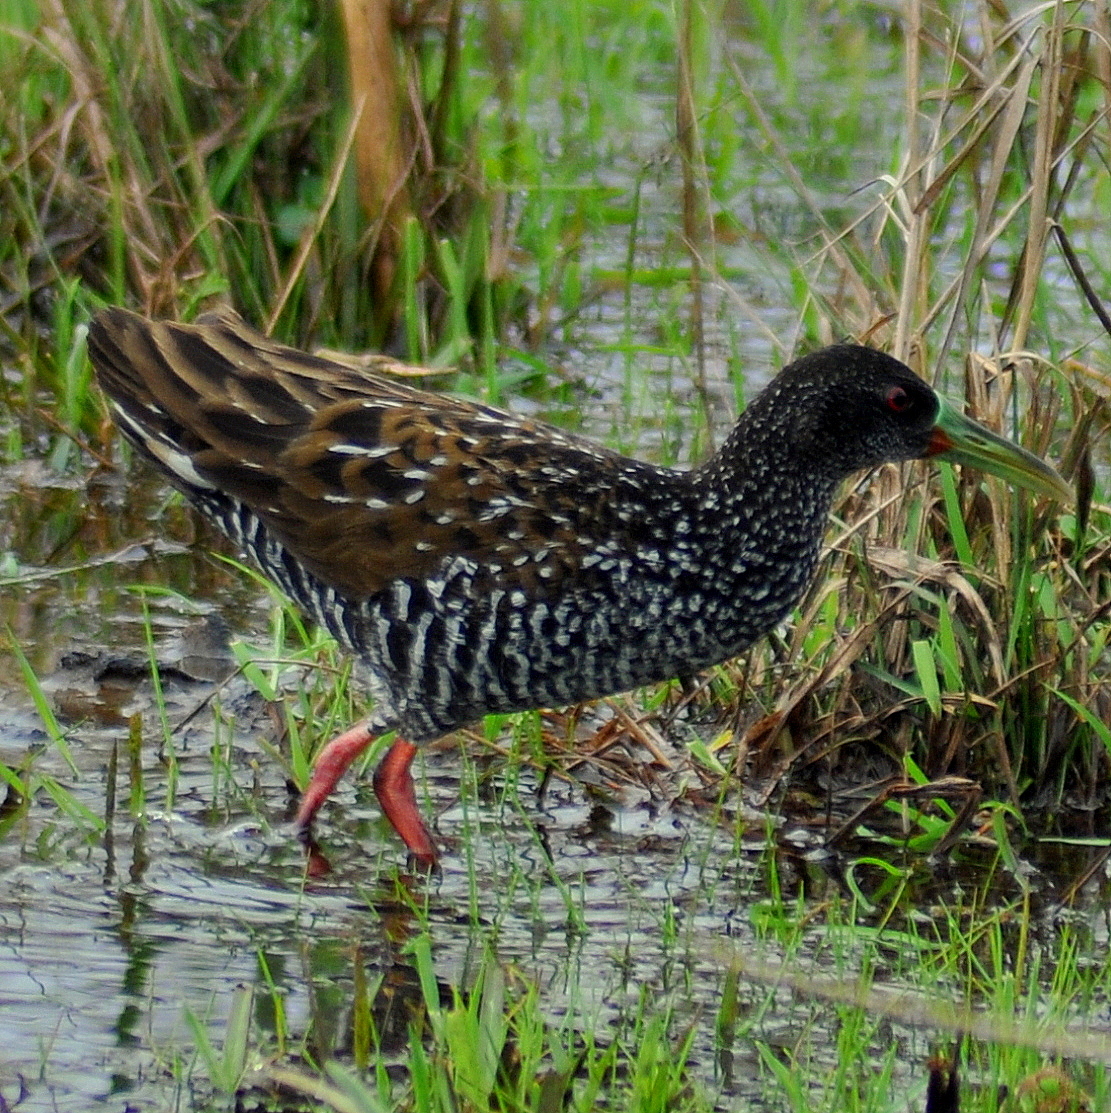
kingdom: Animalia
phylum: Chordata
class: Aves
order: Gruiformes
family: Rallidae
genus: Pardirallus
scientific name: Pardirallus maculatus
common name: Spotted rail
